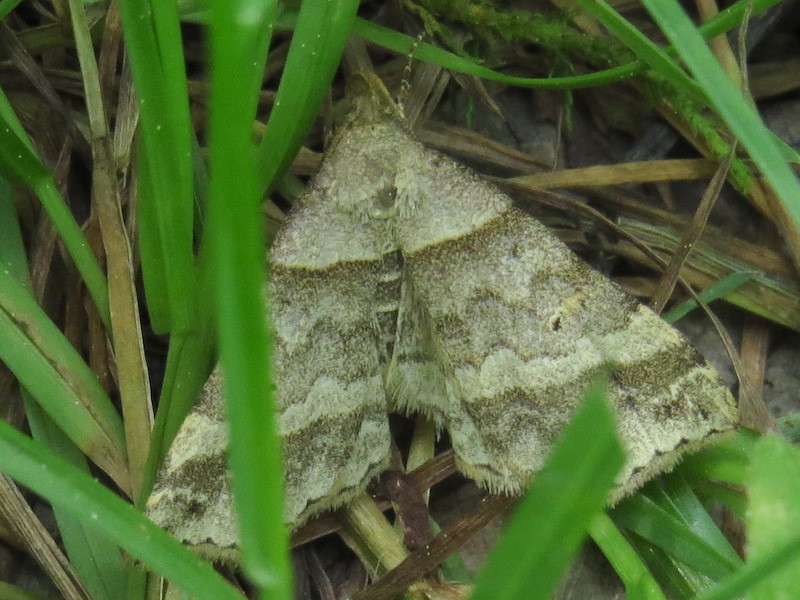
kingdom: Animalia
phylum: Arthropoda
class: Insecta
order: Lepidoptera
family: Erebidae
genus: Phaeolita
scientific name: Phaeolita pyramusalis
